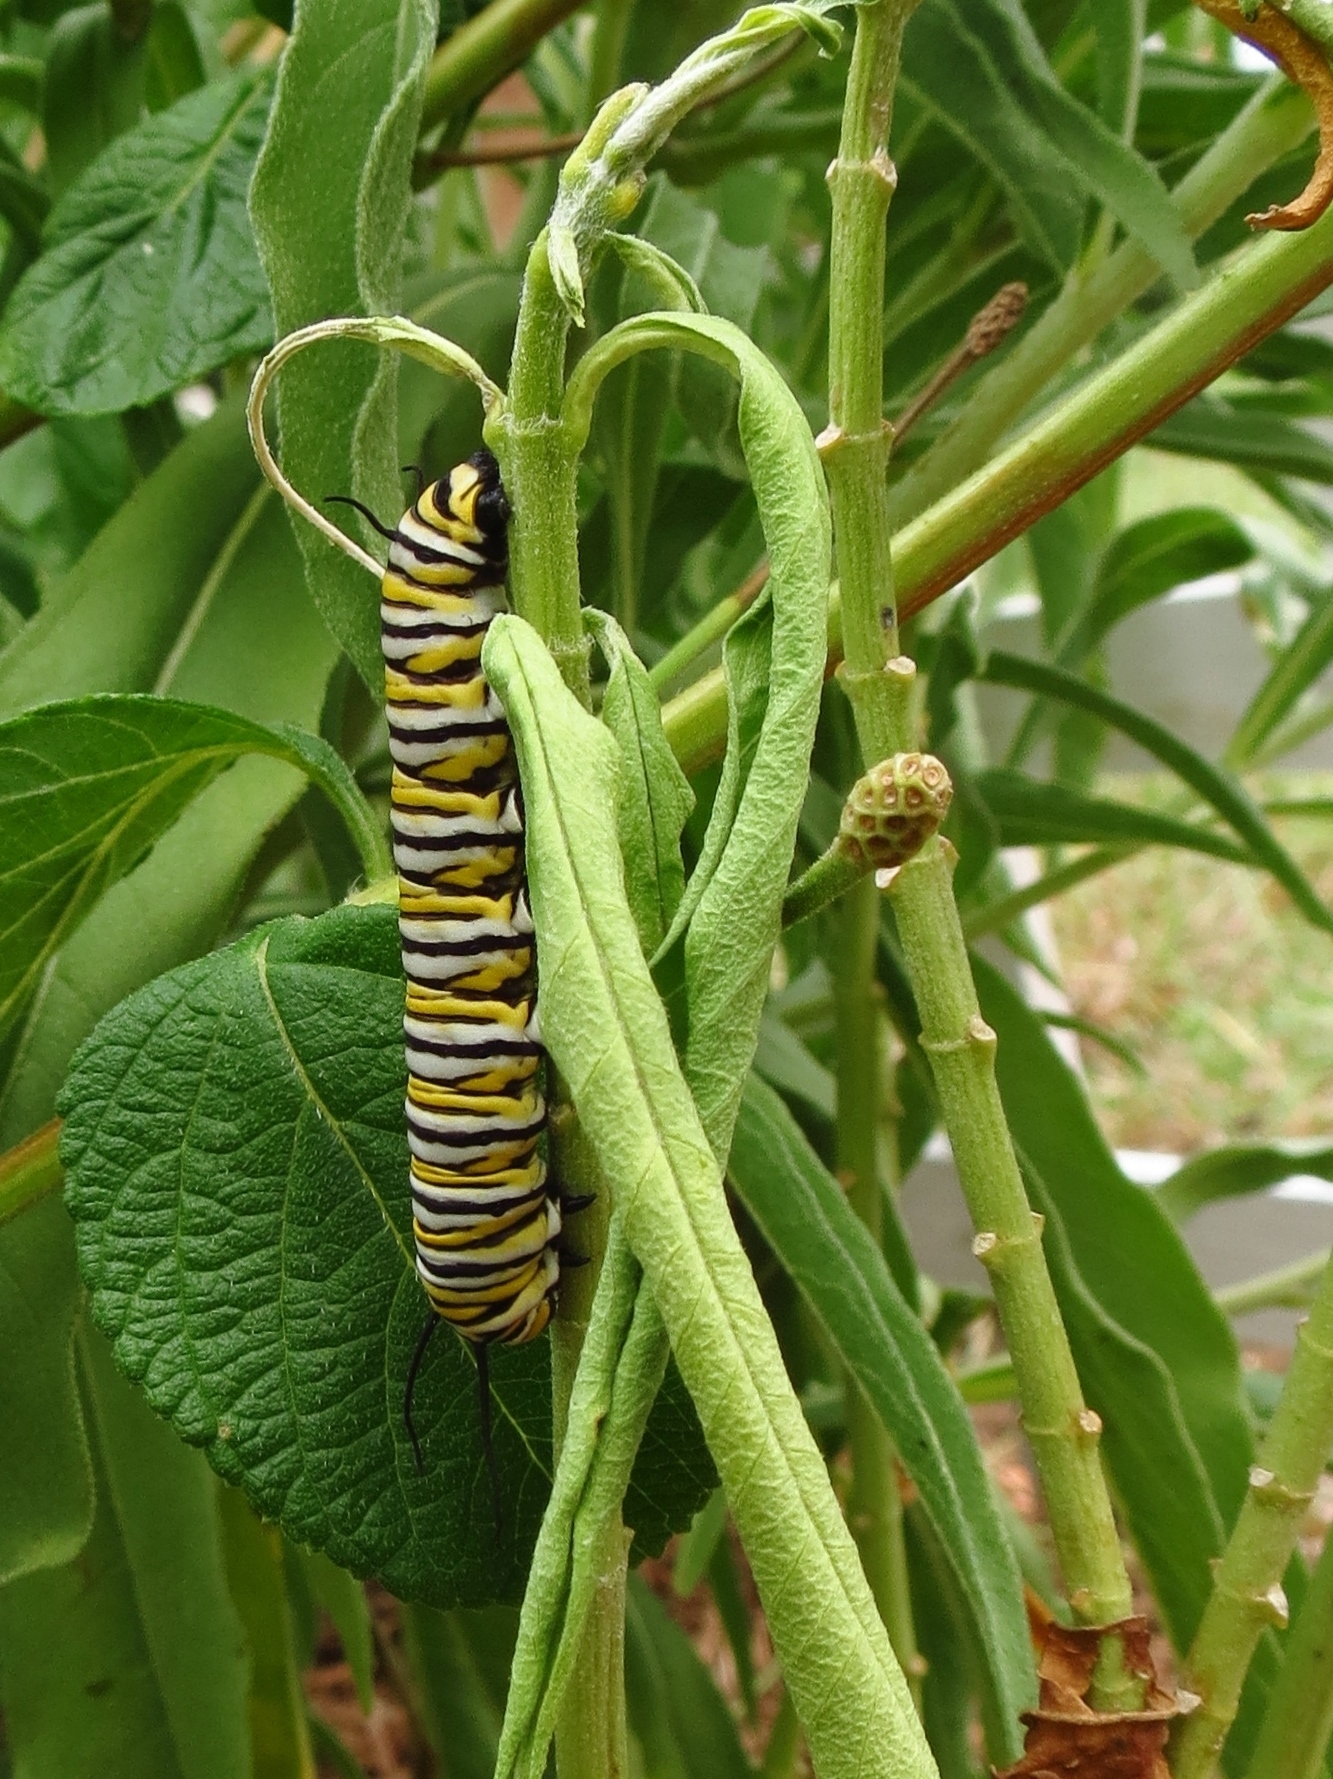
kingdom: Animalia
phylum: Arthropoda
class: Insecta
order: Lepidoptera
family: Nymphalidae
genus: Danaus
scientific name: Danaus plexippus
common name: Monarch
